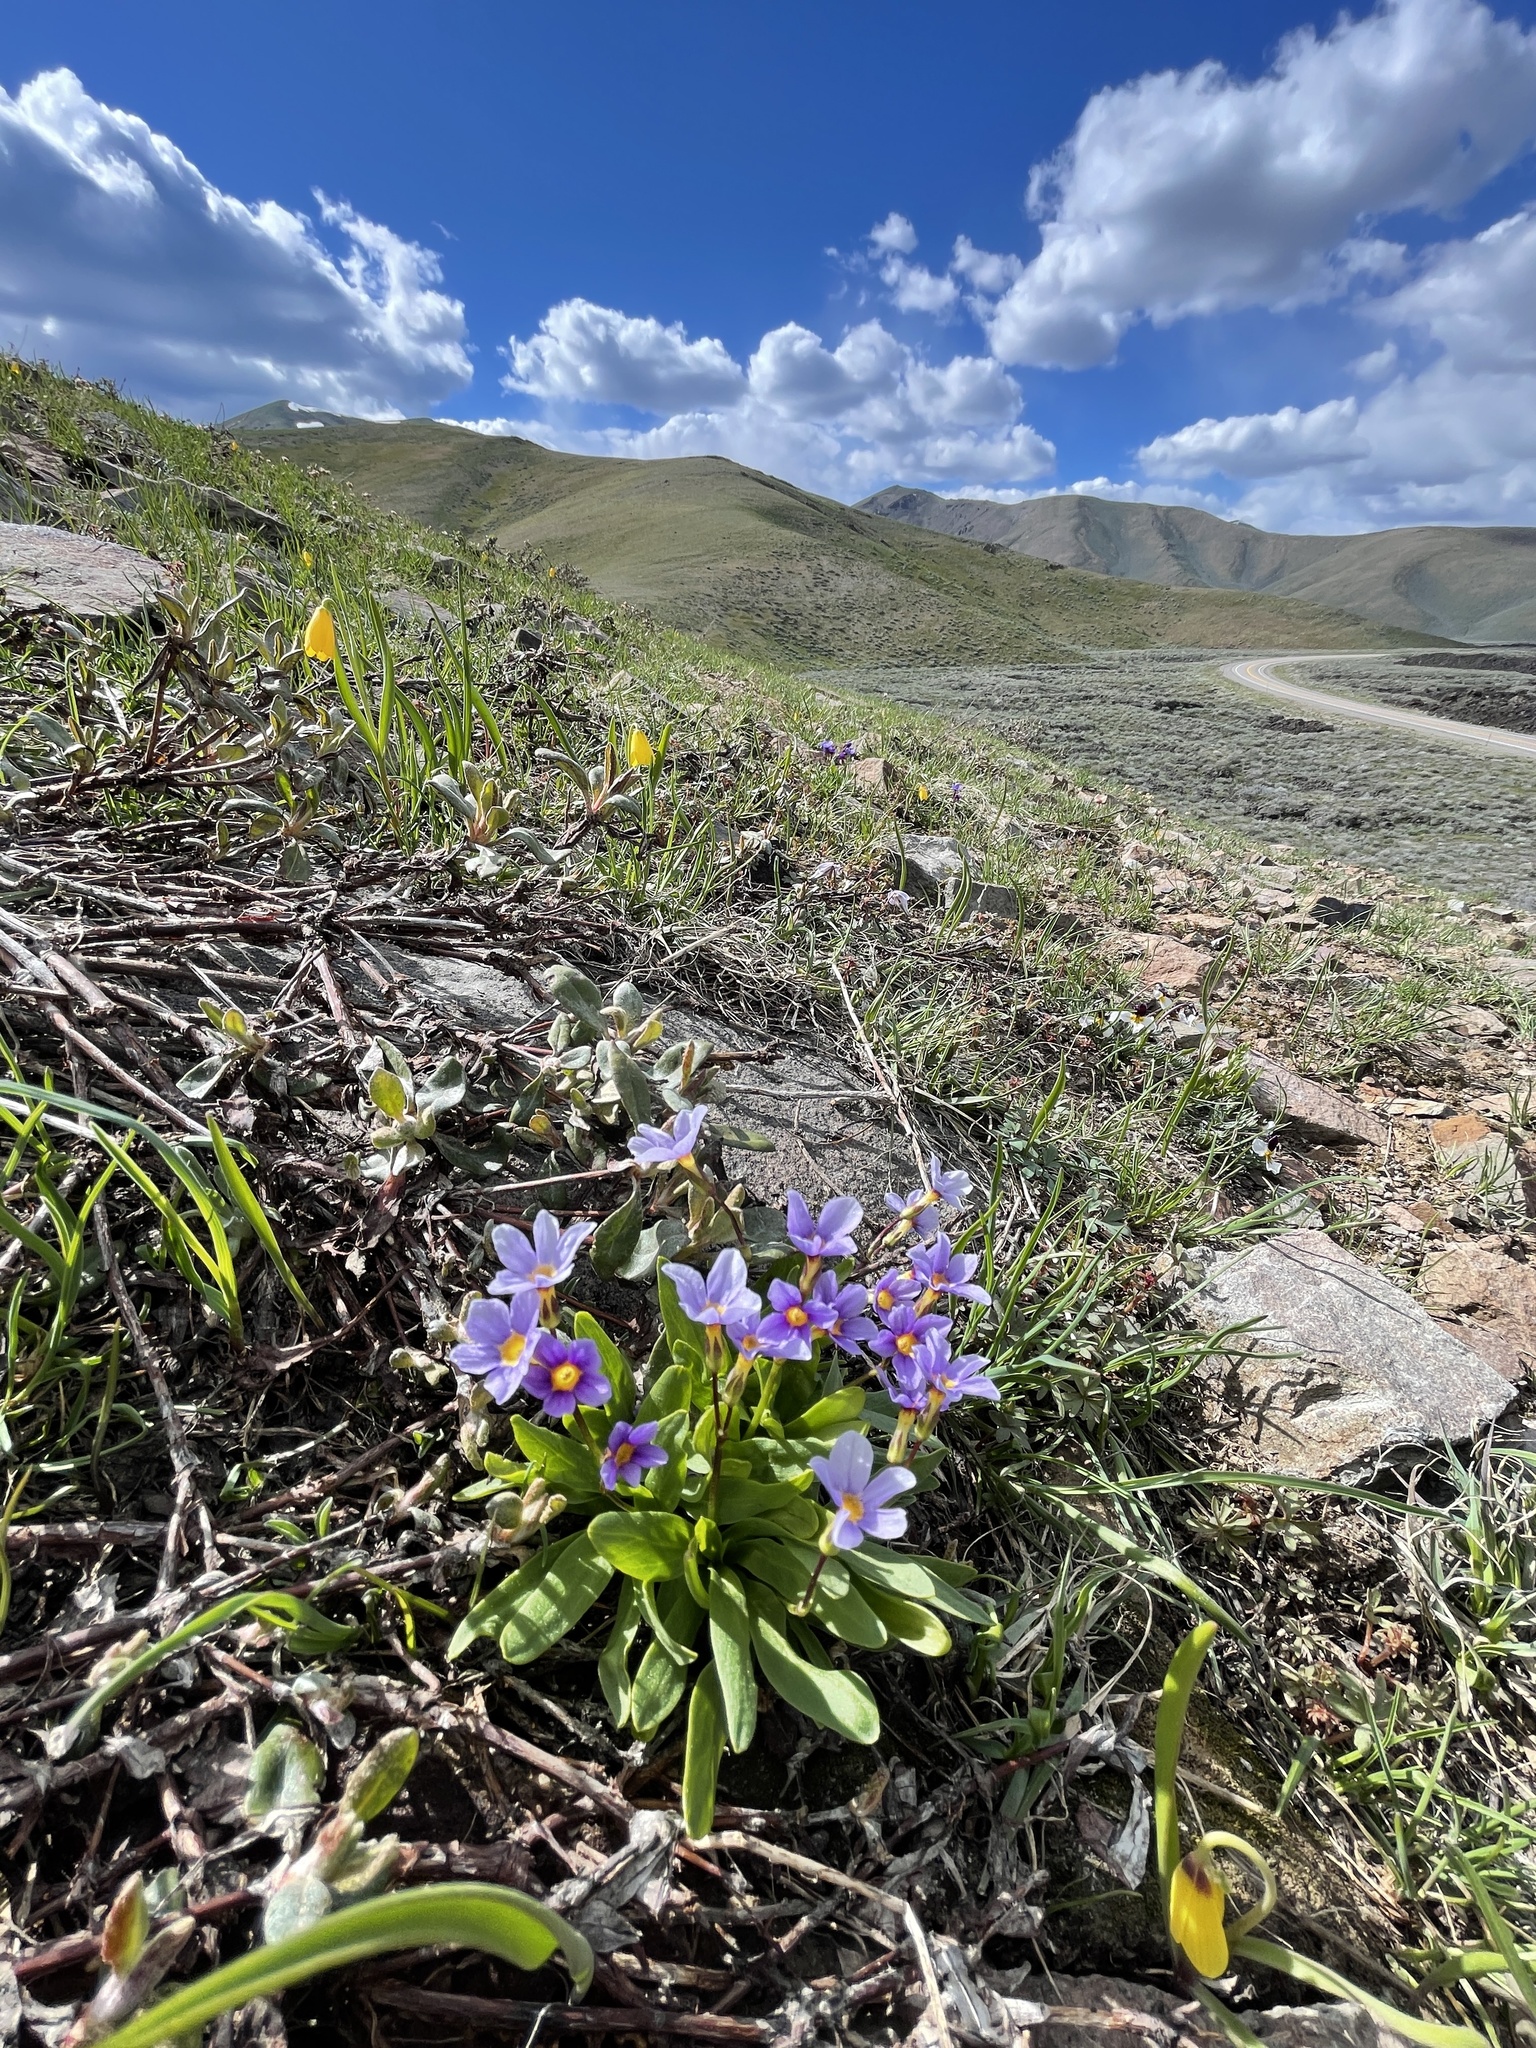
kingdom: Plantae
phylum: Tracheophyta
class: Magnoliopsida
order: Ericales
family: Primulaceae
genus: Primula
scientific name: Primula cusickiana
